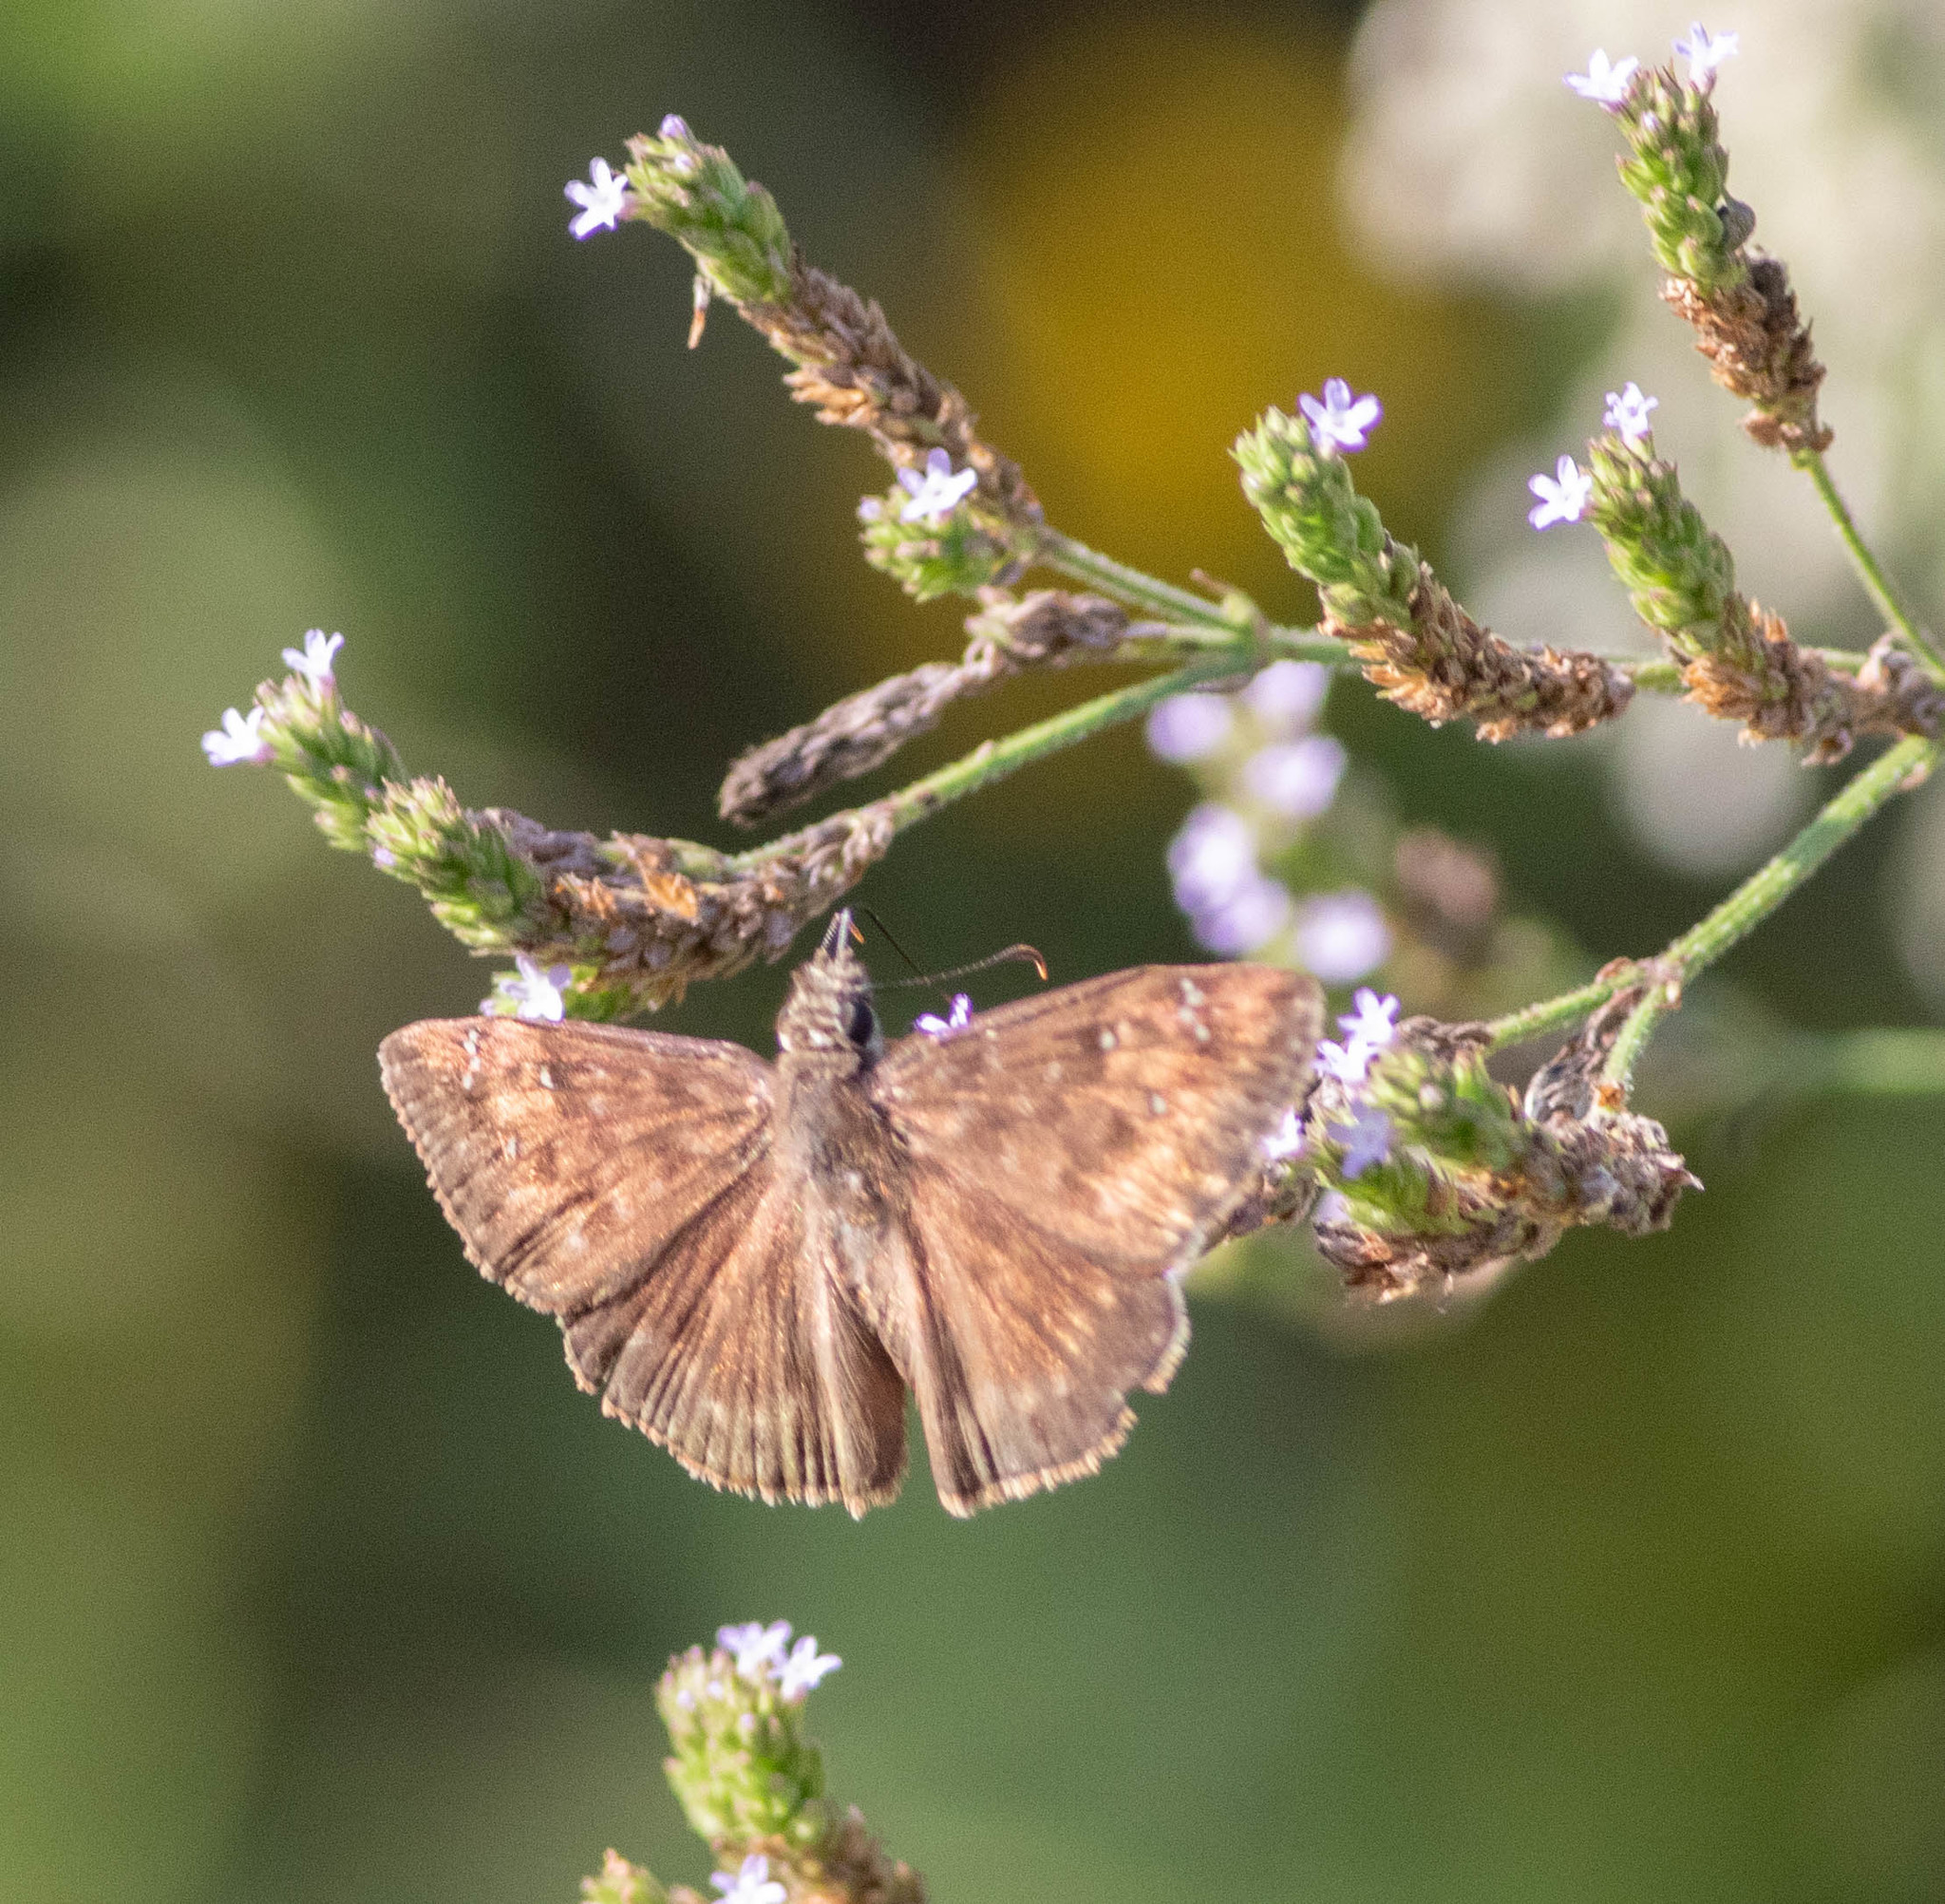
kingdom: Animalia
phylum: Arthropoda
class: Insecta
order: Lepidoptera
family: Hesperiidae
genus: Erynnis
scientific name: Erynnis horatius
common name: Horace's duskywing
